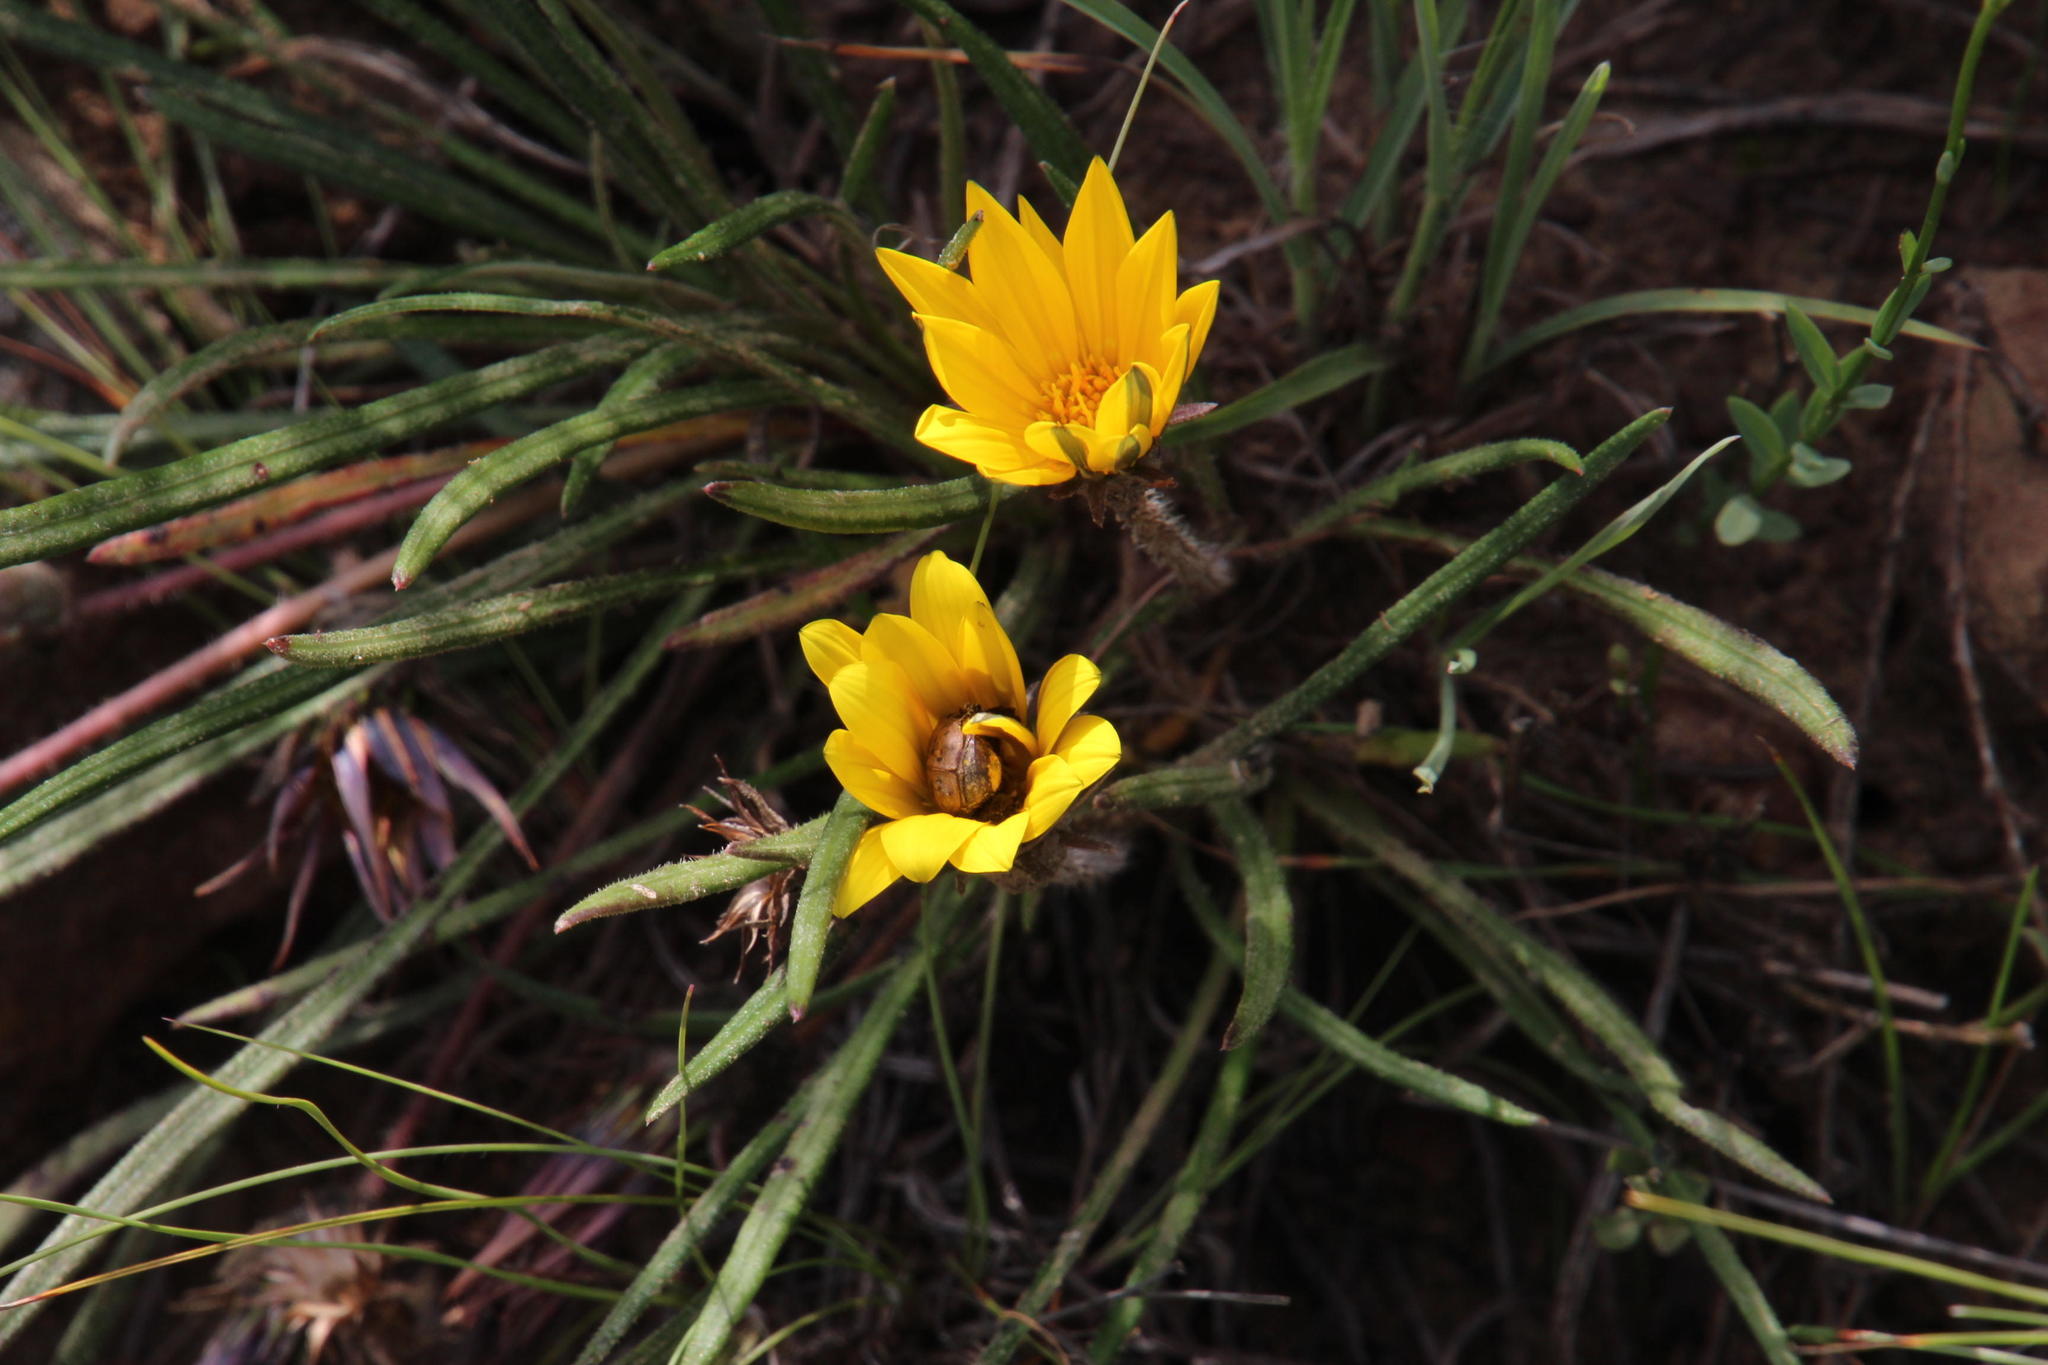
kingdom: Plantae
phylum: Tracheophyta
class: Magnoliopsida
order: Asterales
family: Asteraceae
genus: Gazania
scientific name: Gazania linearis
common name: Treasureflower
